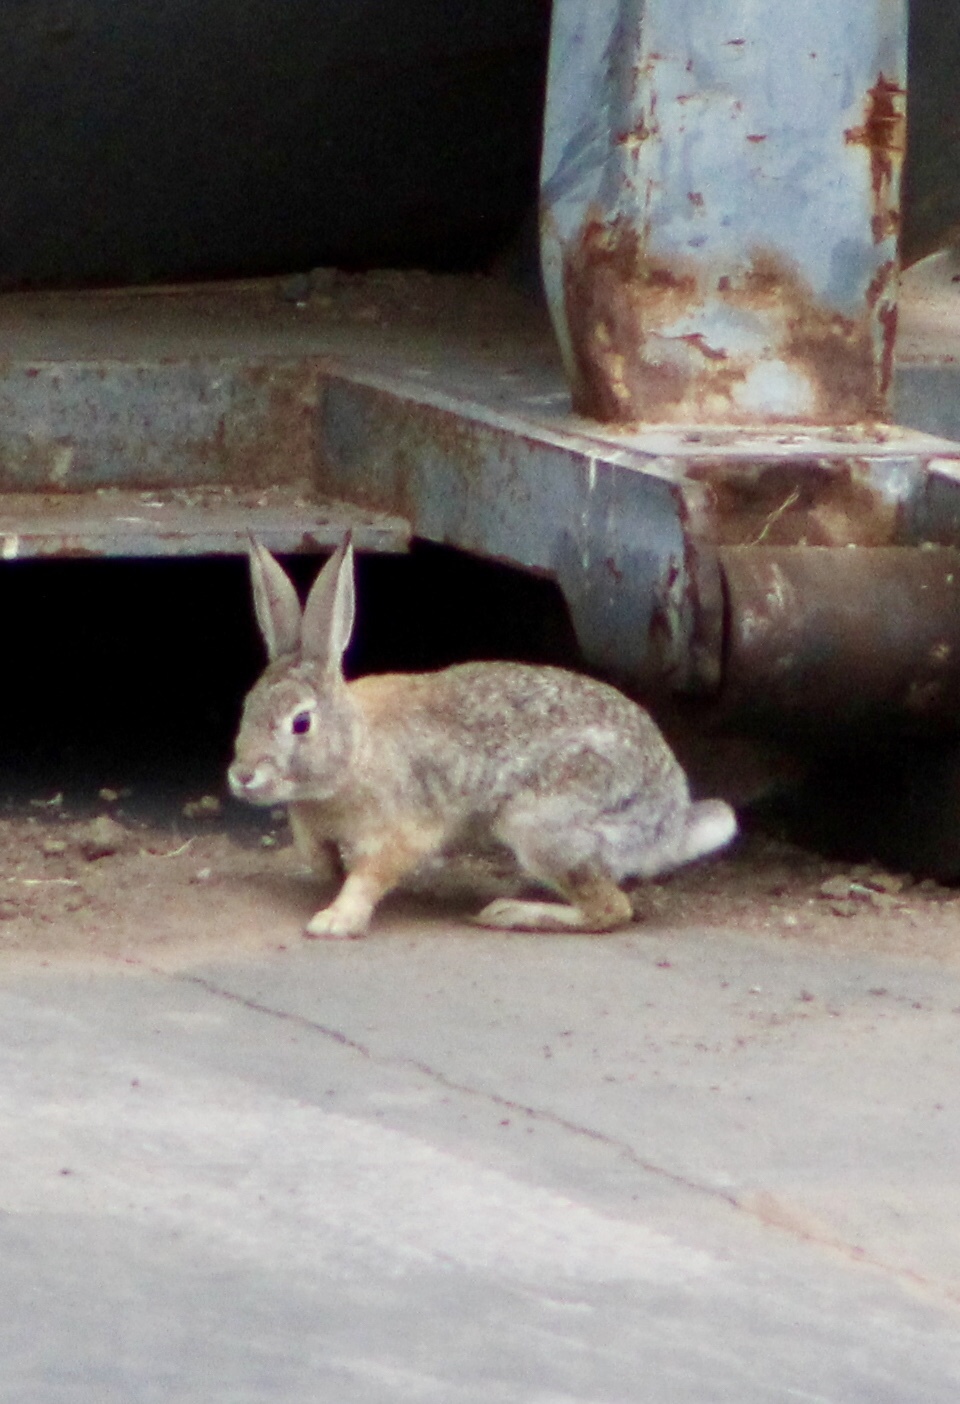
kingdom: Animalia
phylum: Chordata
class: Mammalia
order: Lagomorpha
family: Leporidae
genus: Sylvilagus
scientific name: Sylvilagus audubonii
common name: Desert cottontail
